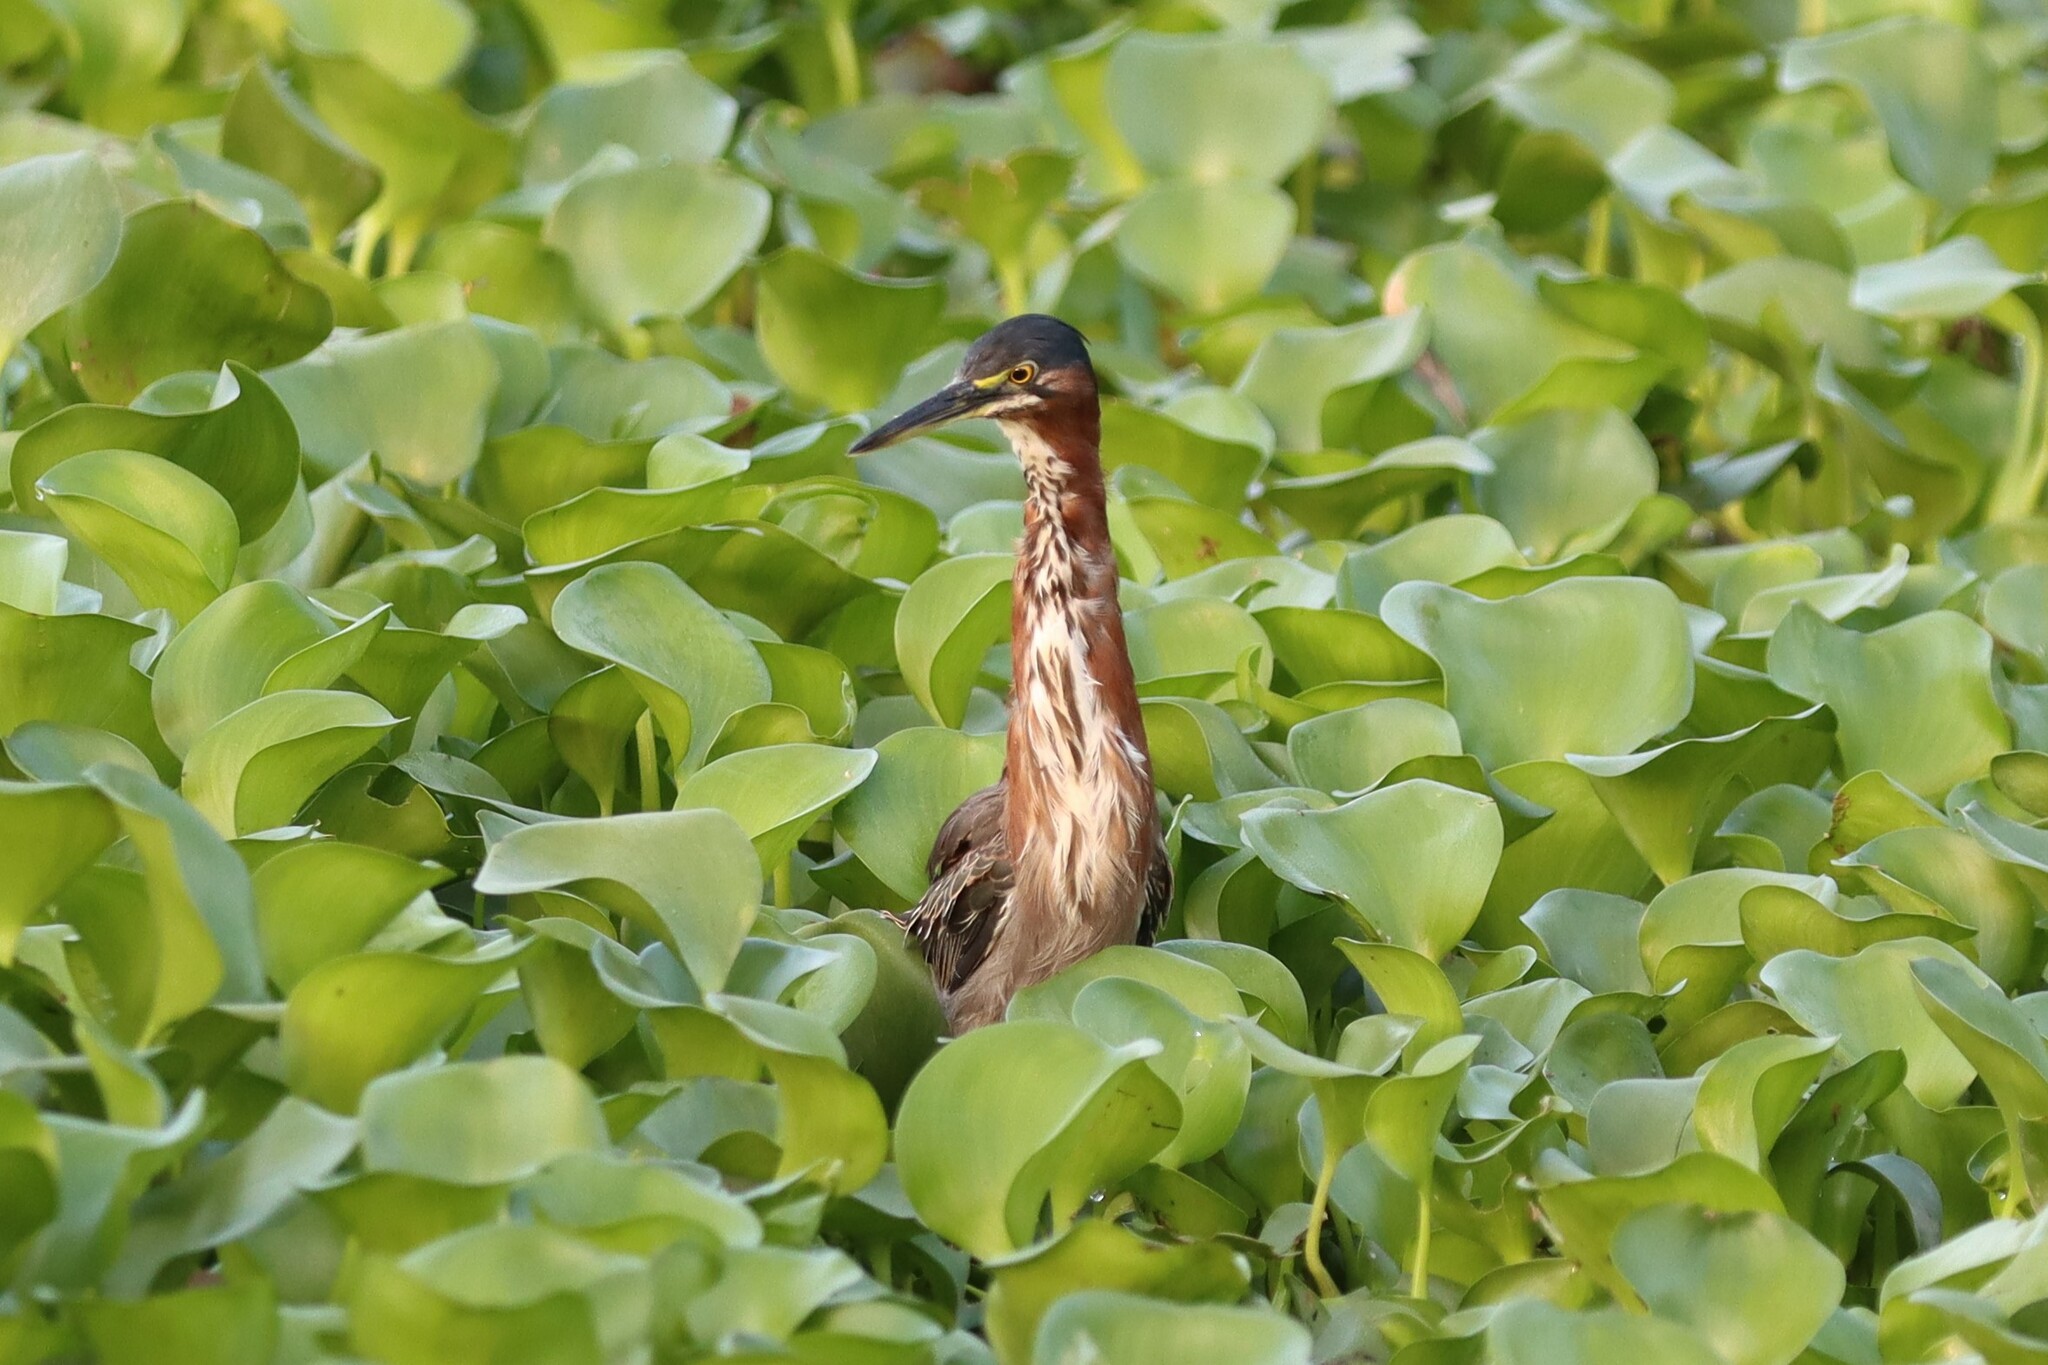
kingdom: Animalia
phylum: Chordata
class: Aves
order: Pelecaniformes
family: Ardeidae
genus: Butorides
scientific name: Butorides virescens
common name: Green heron
